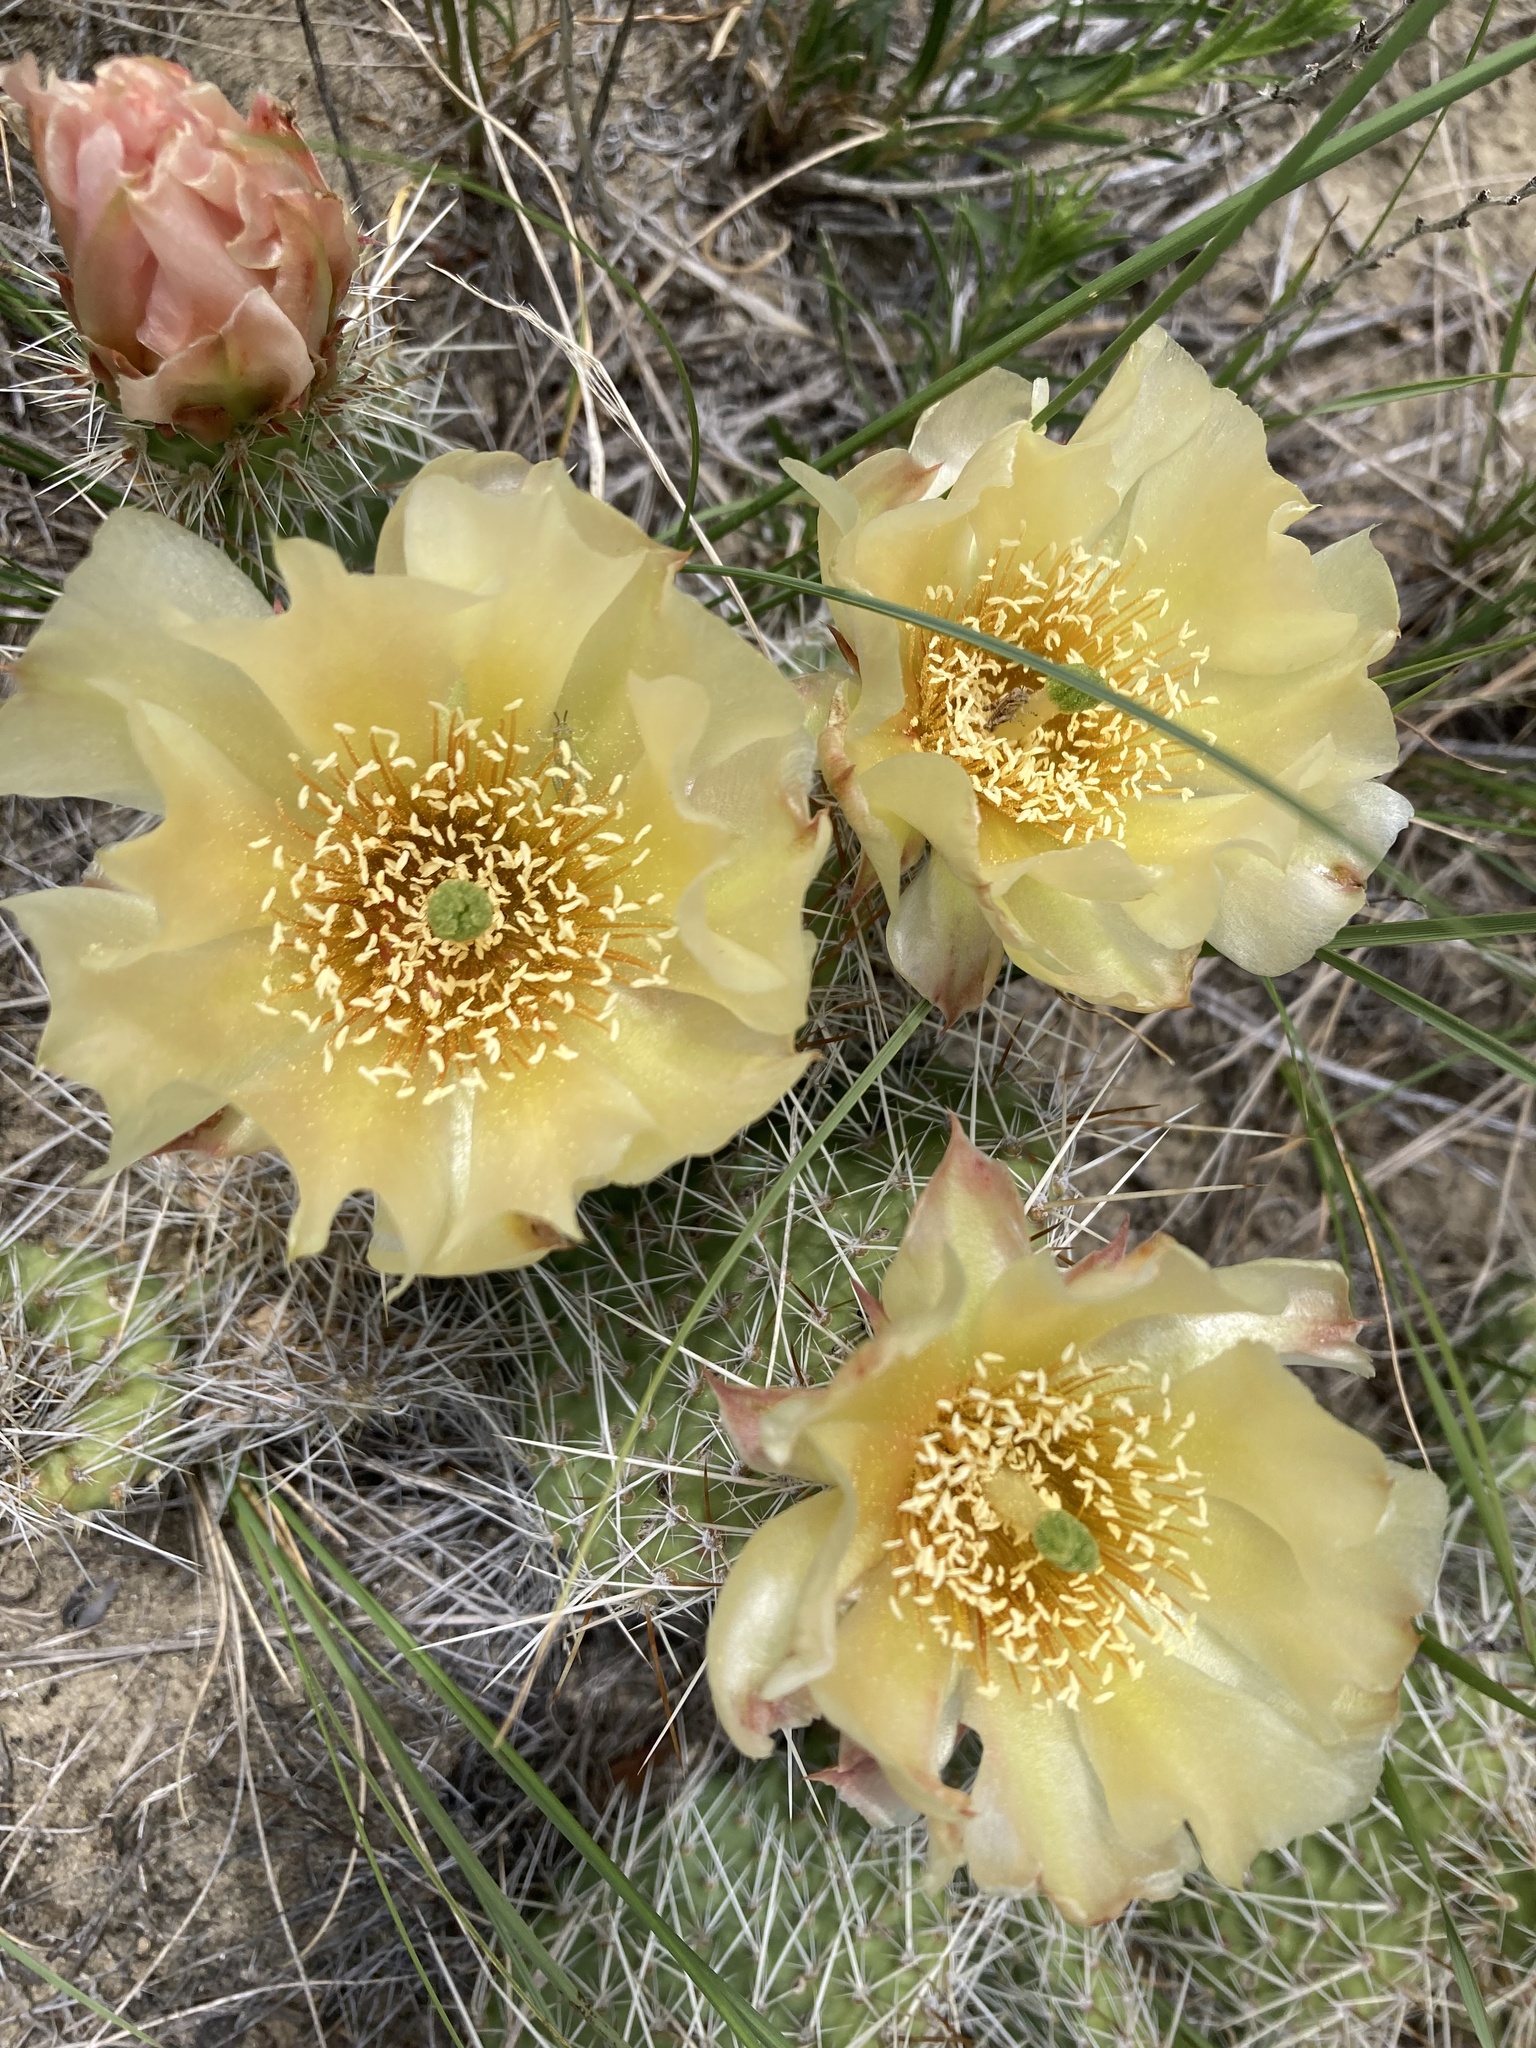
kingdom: Plantae
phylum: Tracheophyta
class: Magnoliopsida
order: Caryophyllales
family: Cactaceae
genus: Opuntia
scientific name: Opuntia polyacantha
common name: Plains prickly-pear
